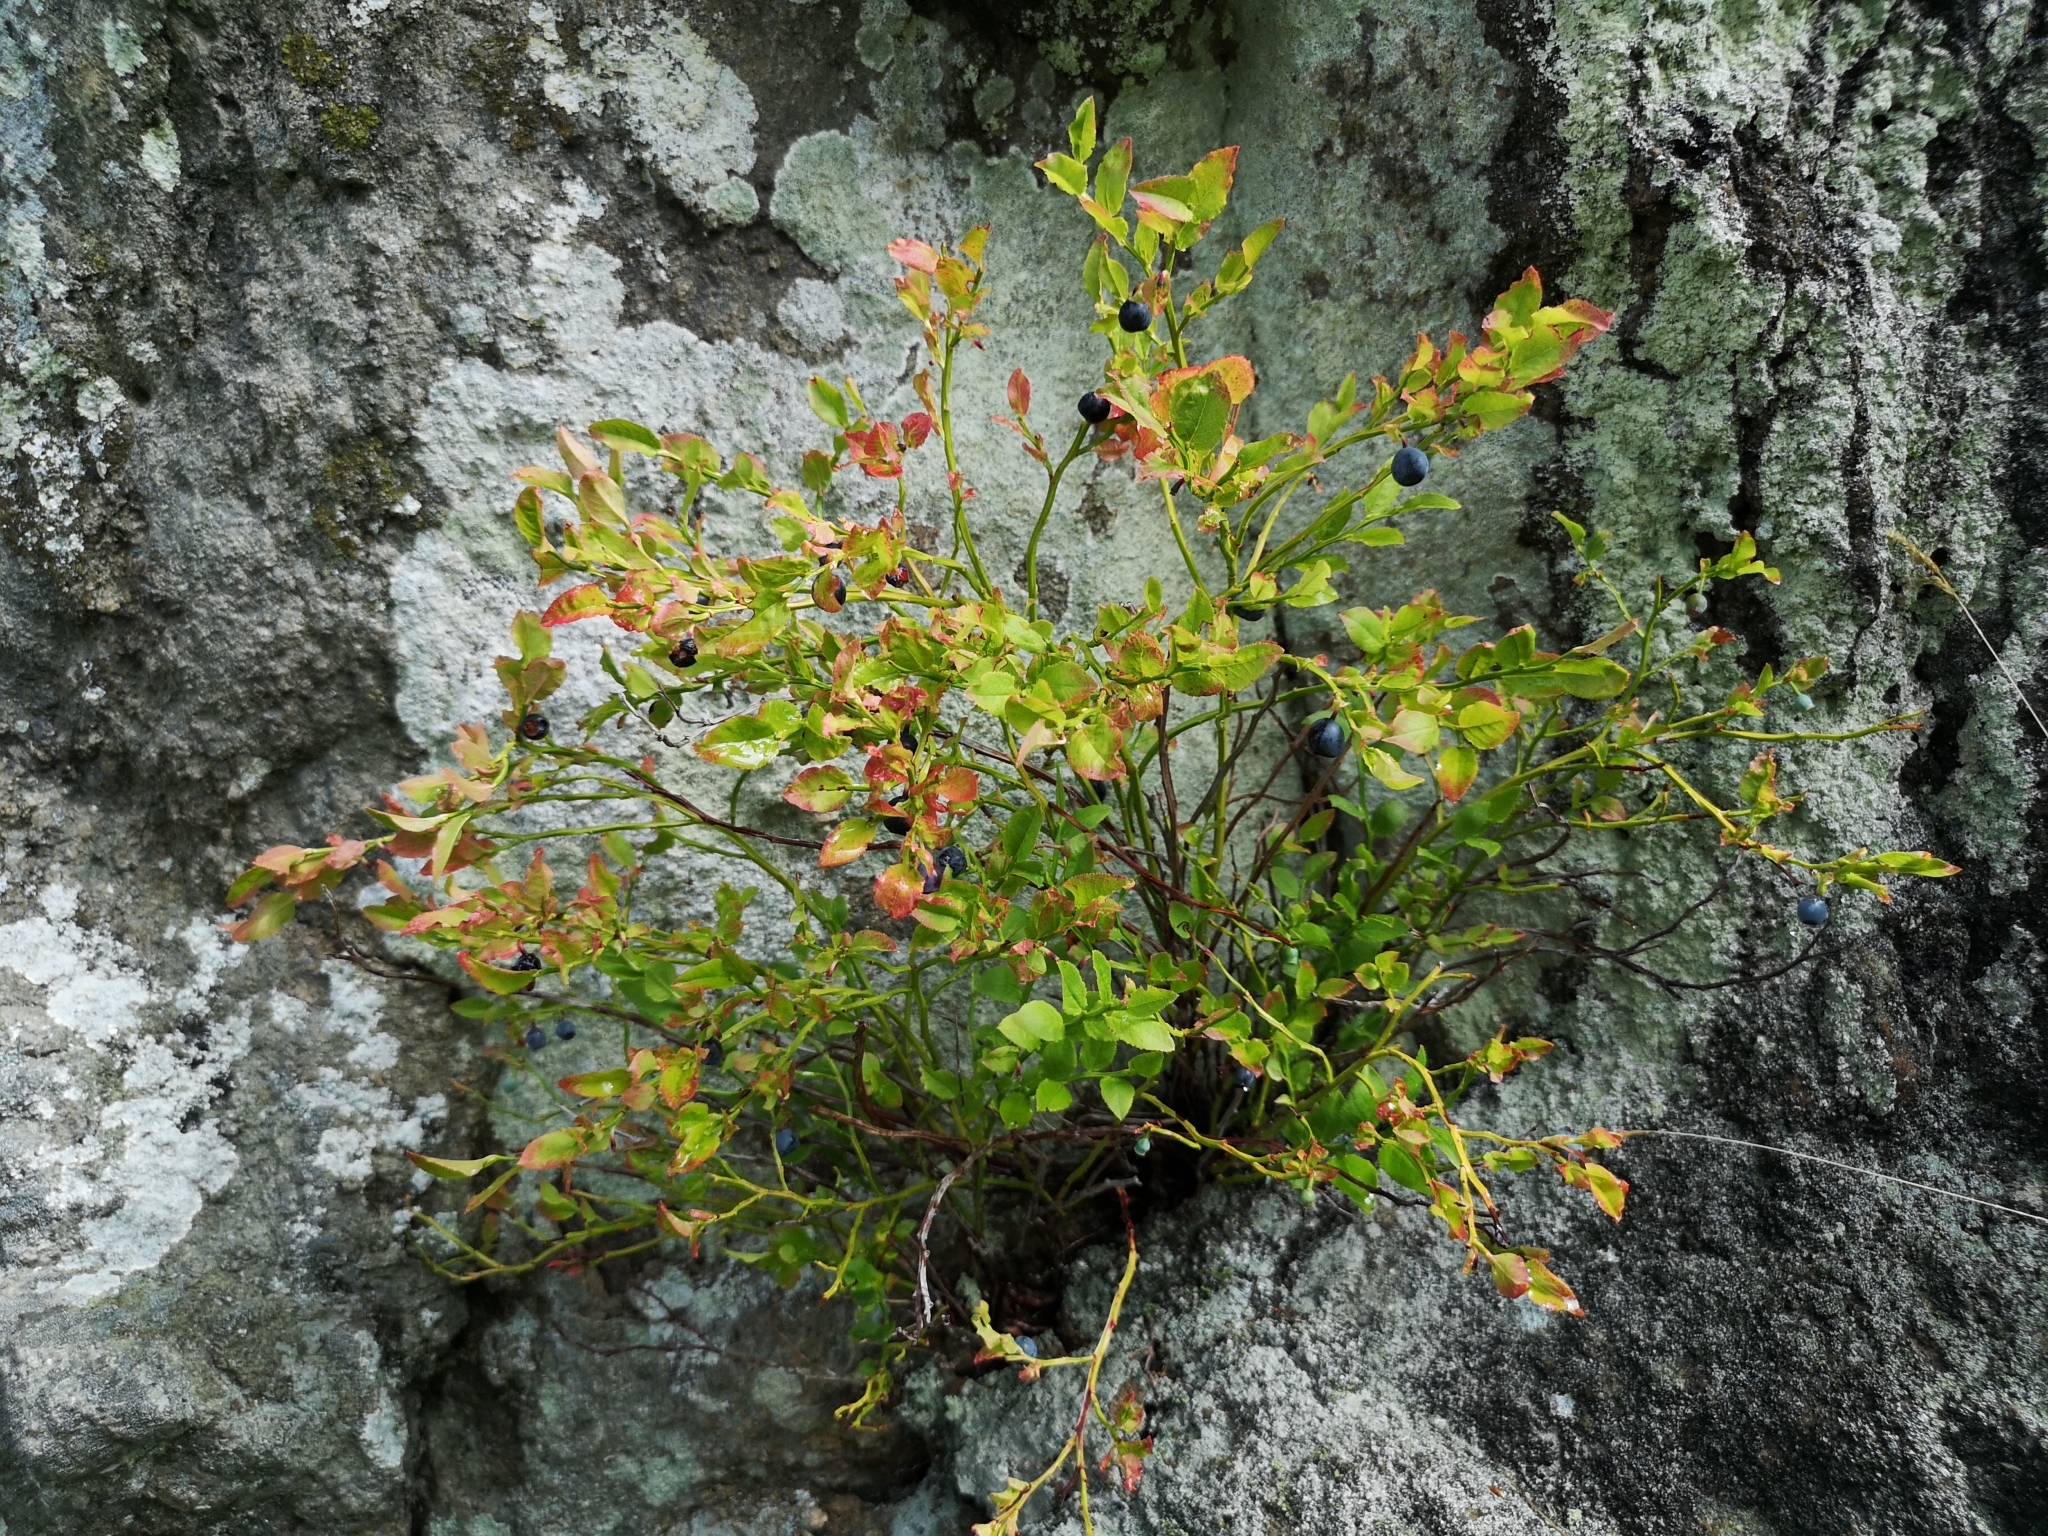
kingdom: Plantae
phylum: Tracheophyta
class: Magnoliopsida
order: Ericales
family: Ericaceae
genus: Vaccinium
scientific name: Vaccinium myrtillus
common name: Bilberry
